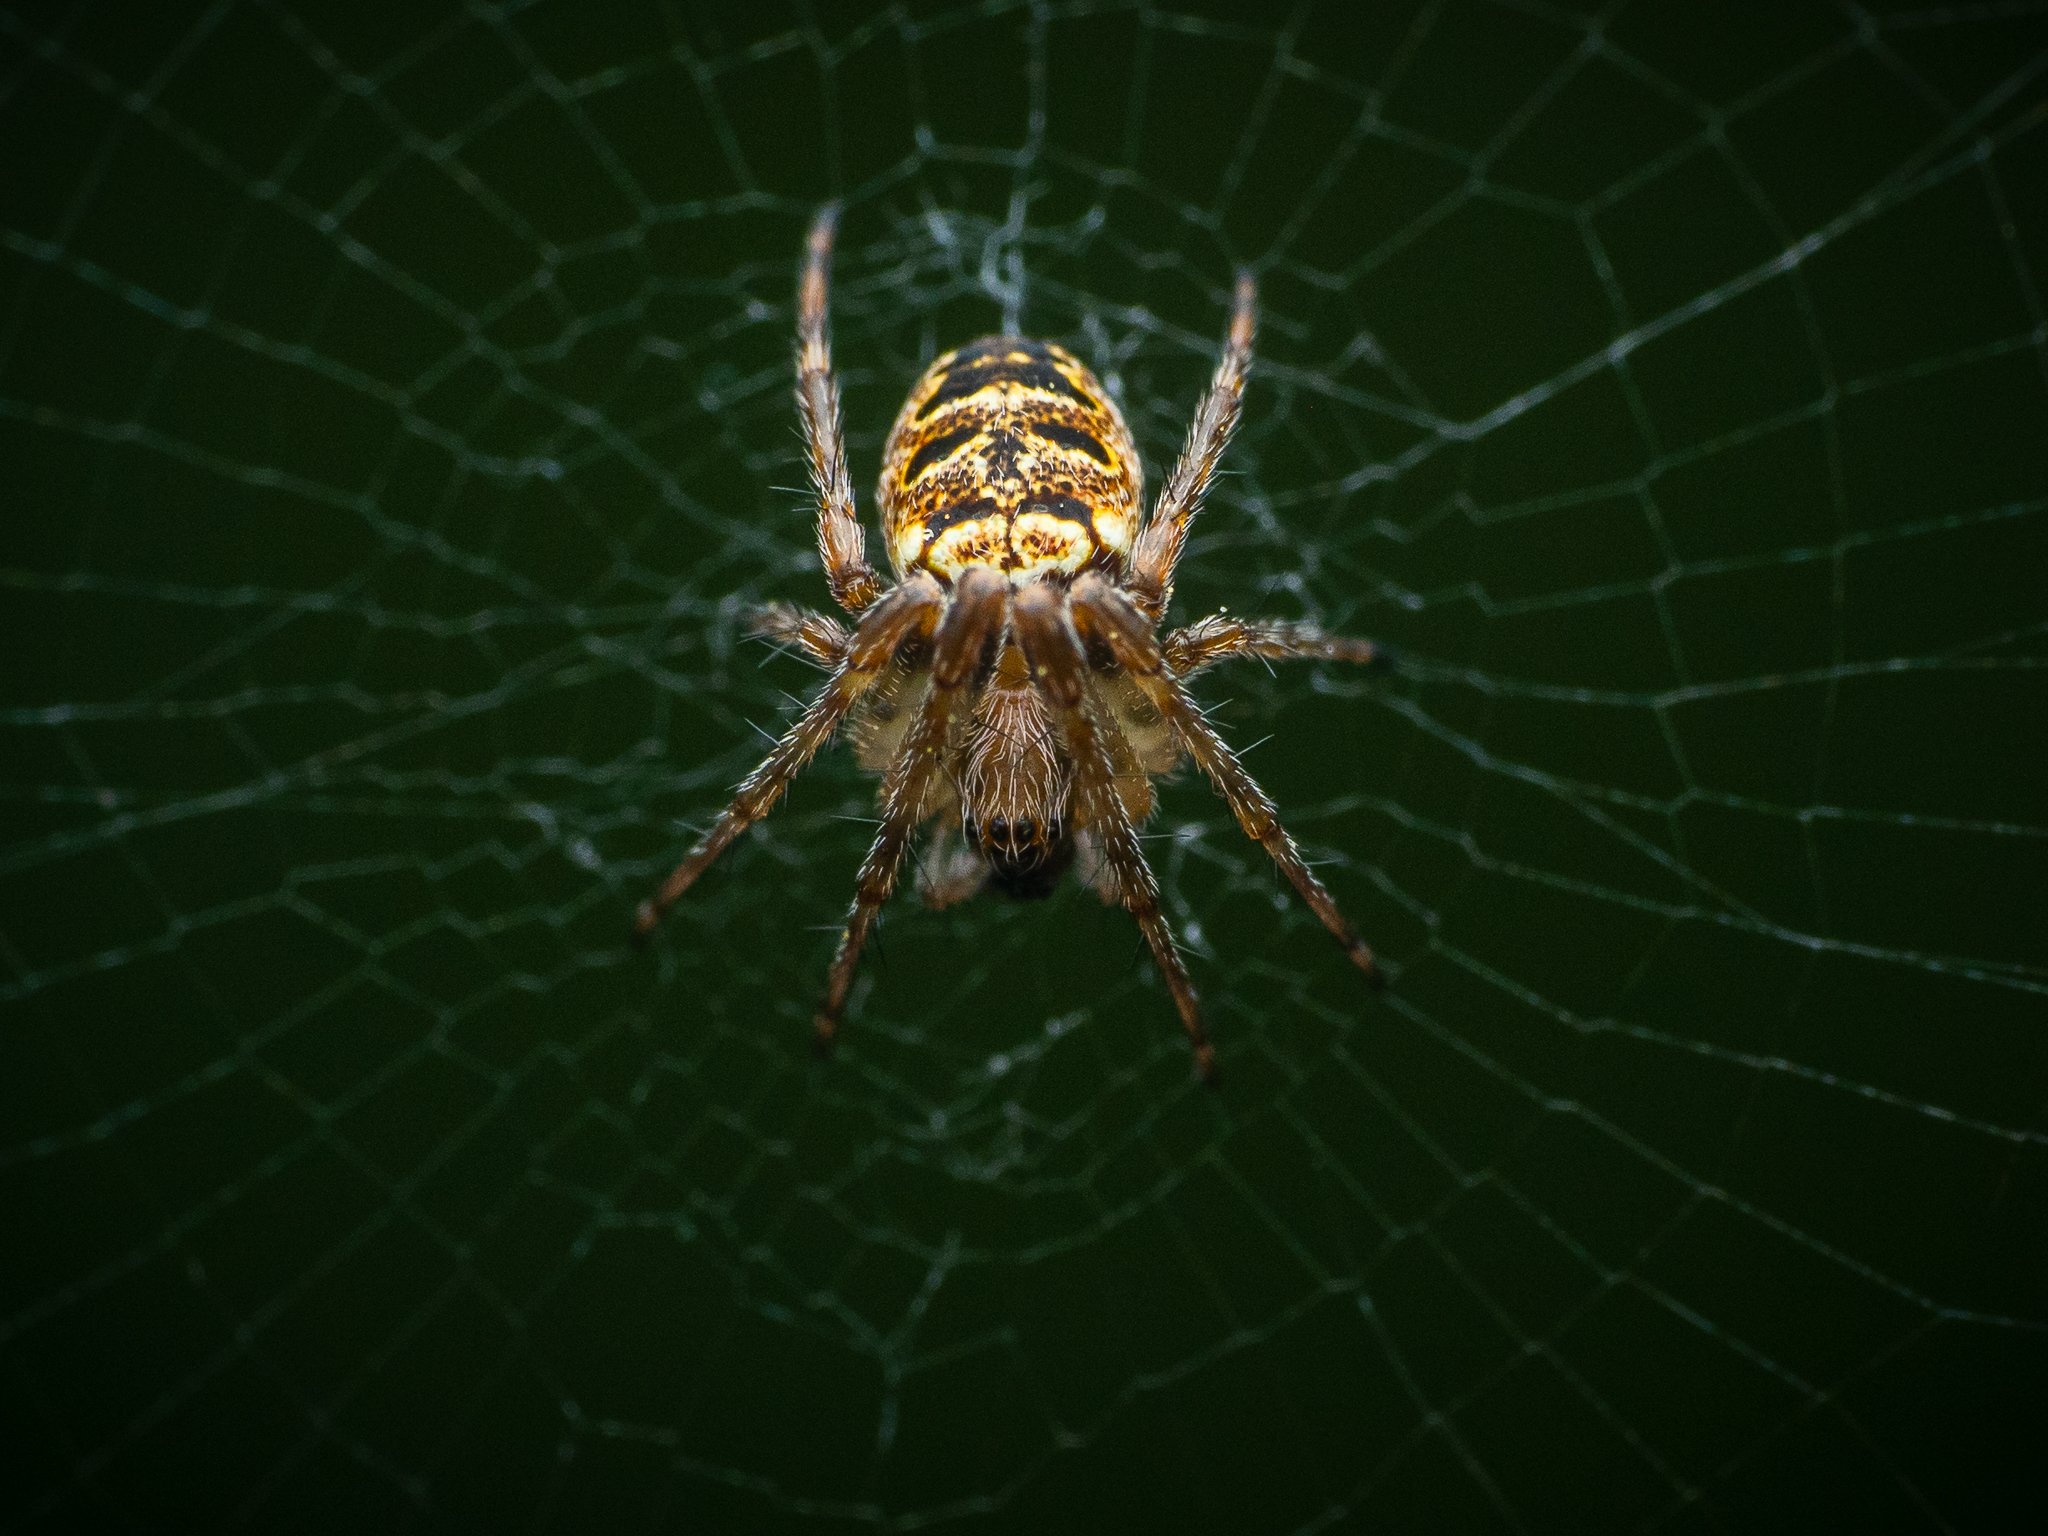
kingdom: Animalia
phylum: Arthropoda
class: Arachnida
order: Araneae
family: Araneidae
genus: Zilla
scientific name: Zilla diodia
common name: Zilla diodia
